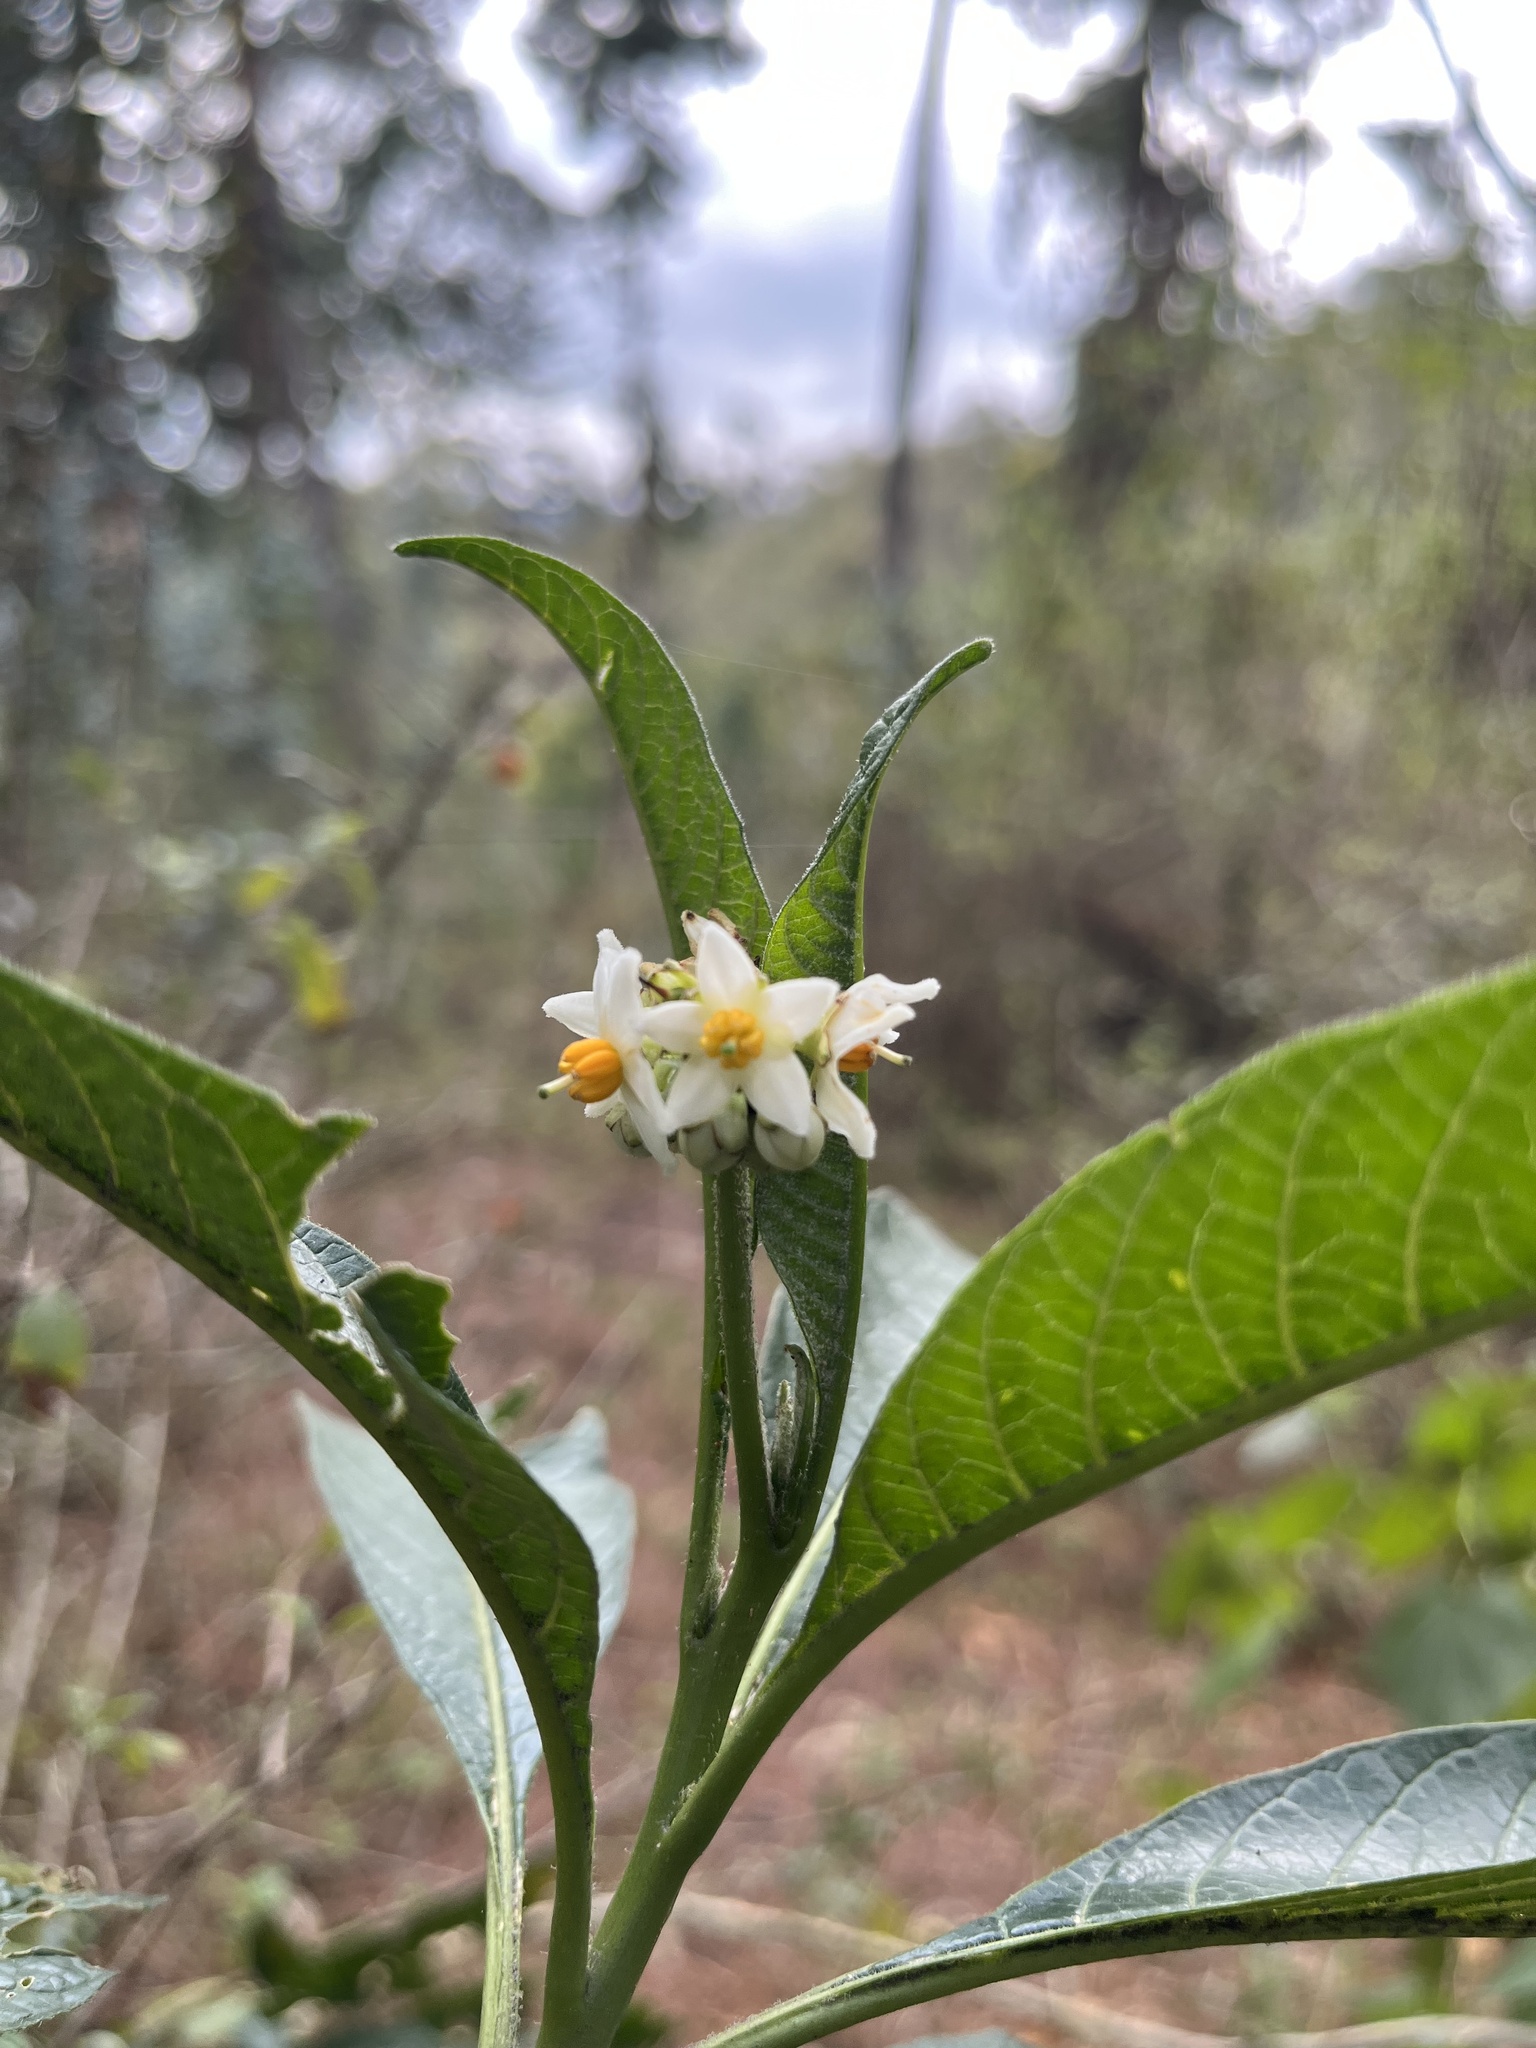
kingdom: Plantae
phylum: Tracheophyta
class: Magnoliopsida
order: Solanales
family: Solanaceae
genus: Solanum
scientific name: Solanum oblongifolium
